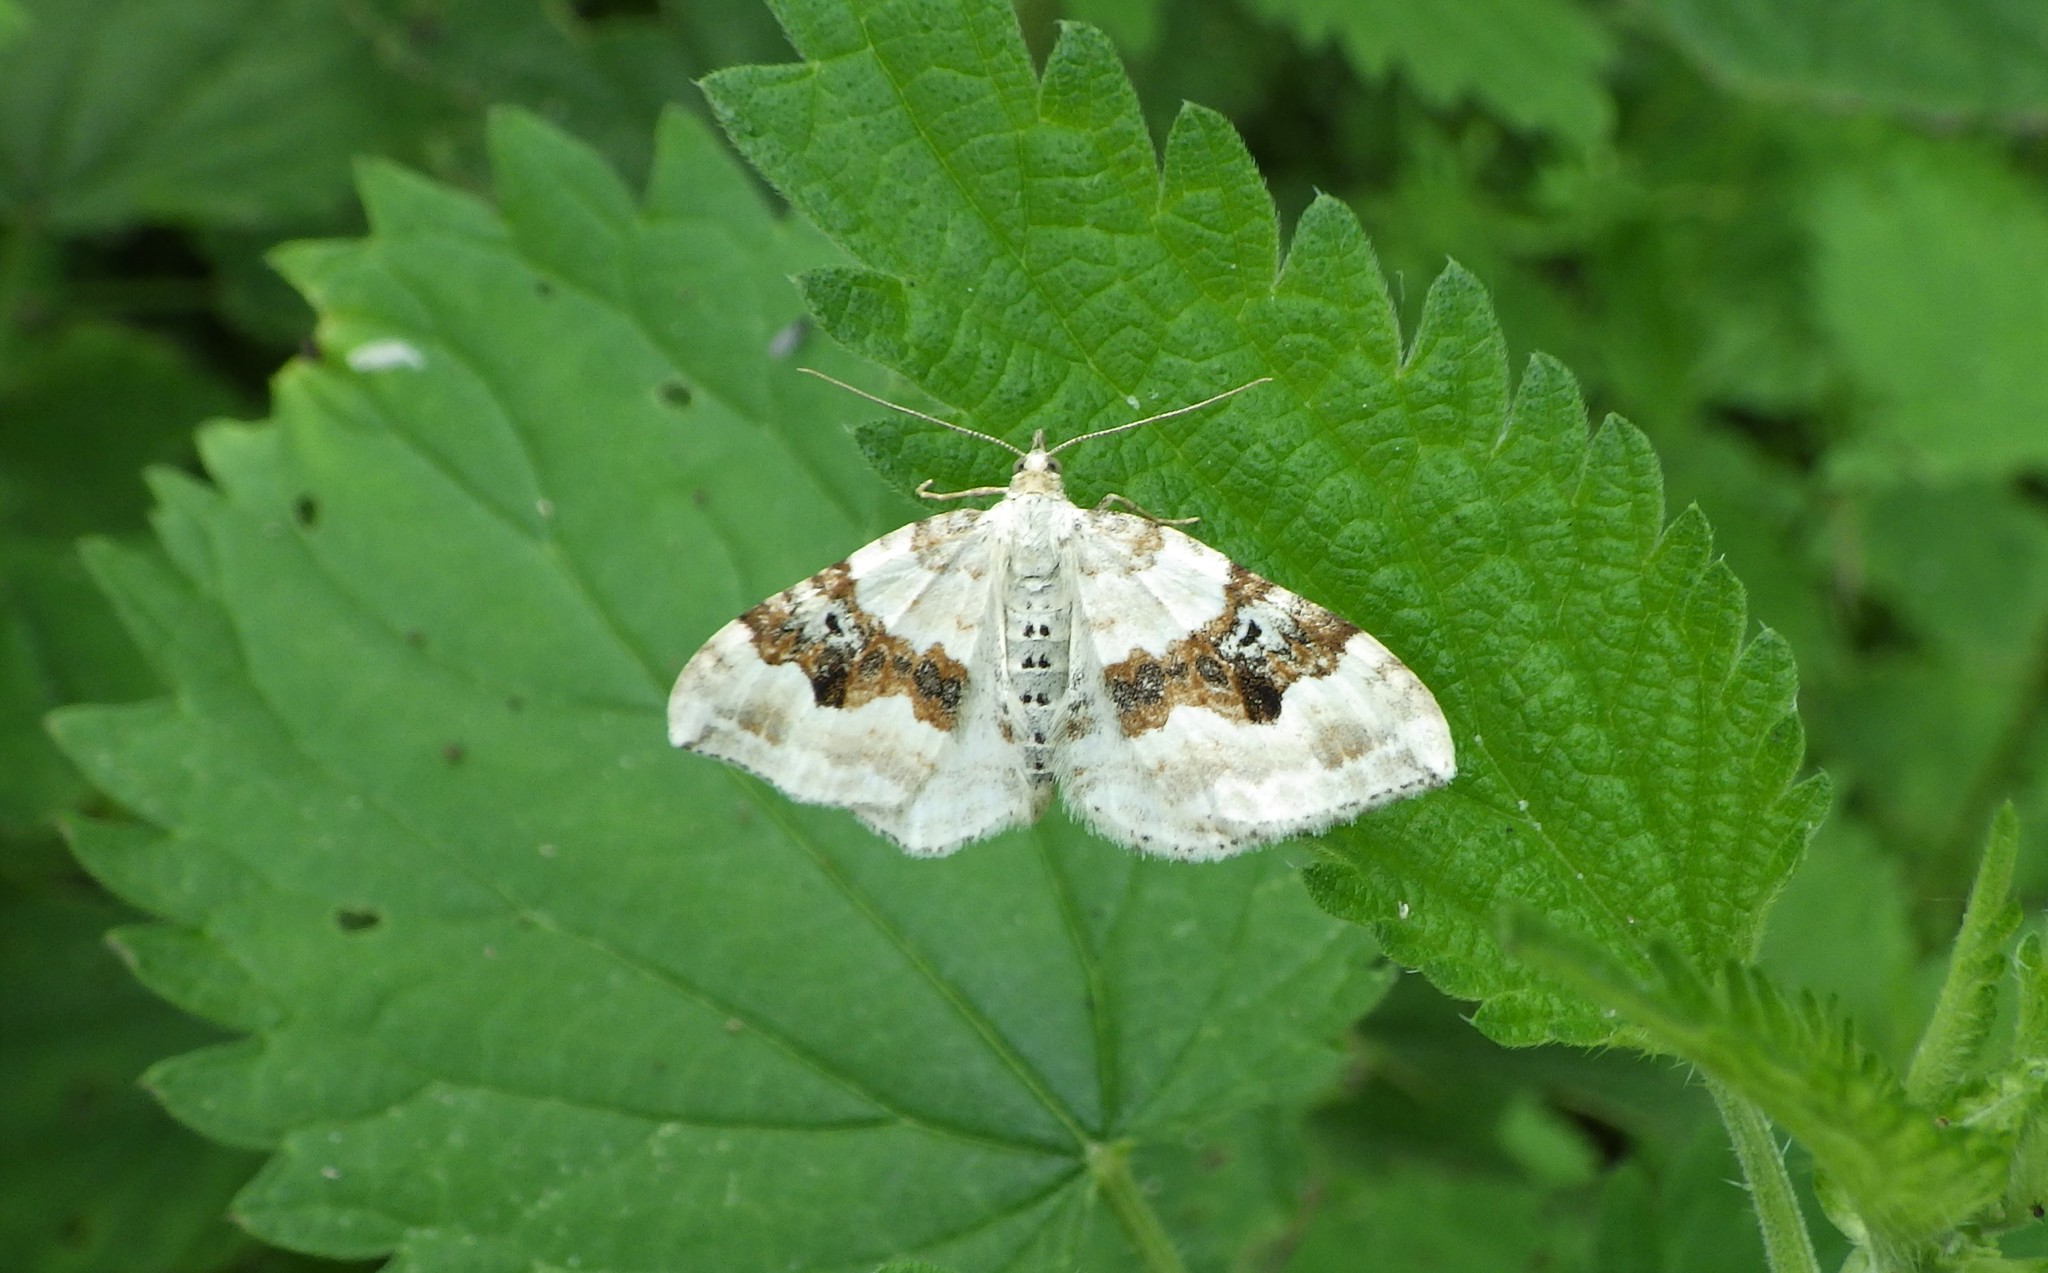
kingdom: Animalia
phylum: Arthropoda
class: Insecta
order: Lepidoptera
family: Geometridae
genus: Xanthorhoe
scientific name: Xanthorhoe montanata
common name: Silver-ground carpet
